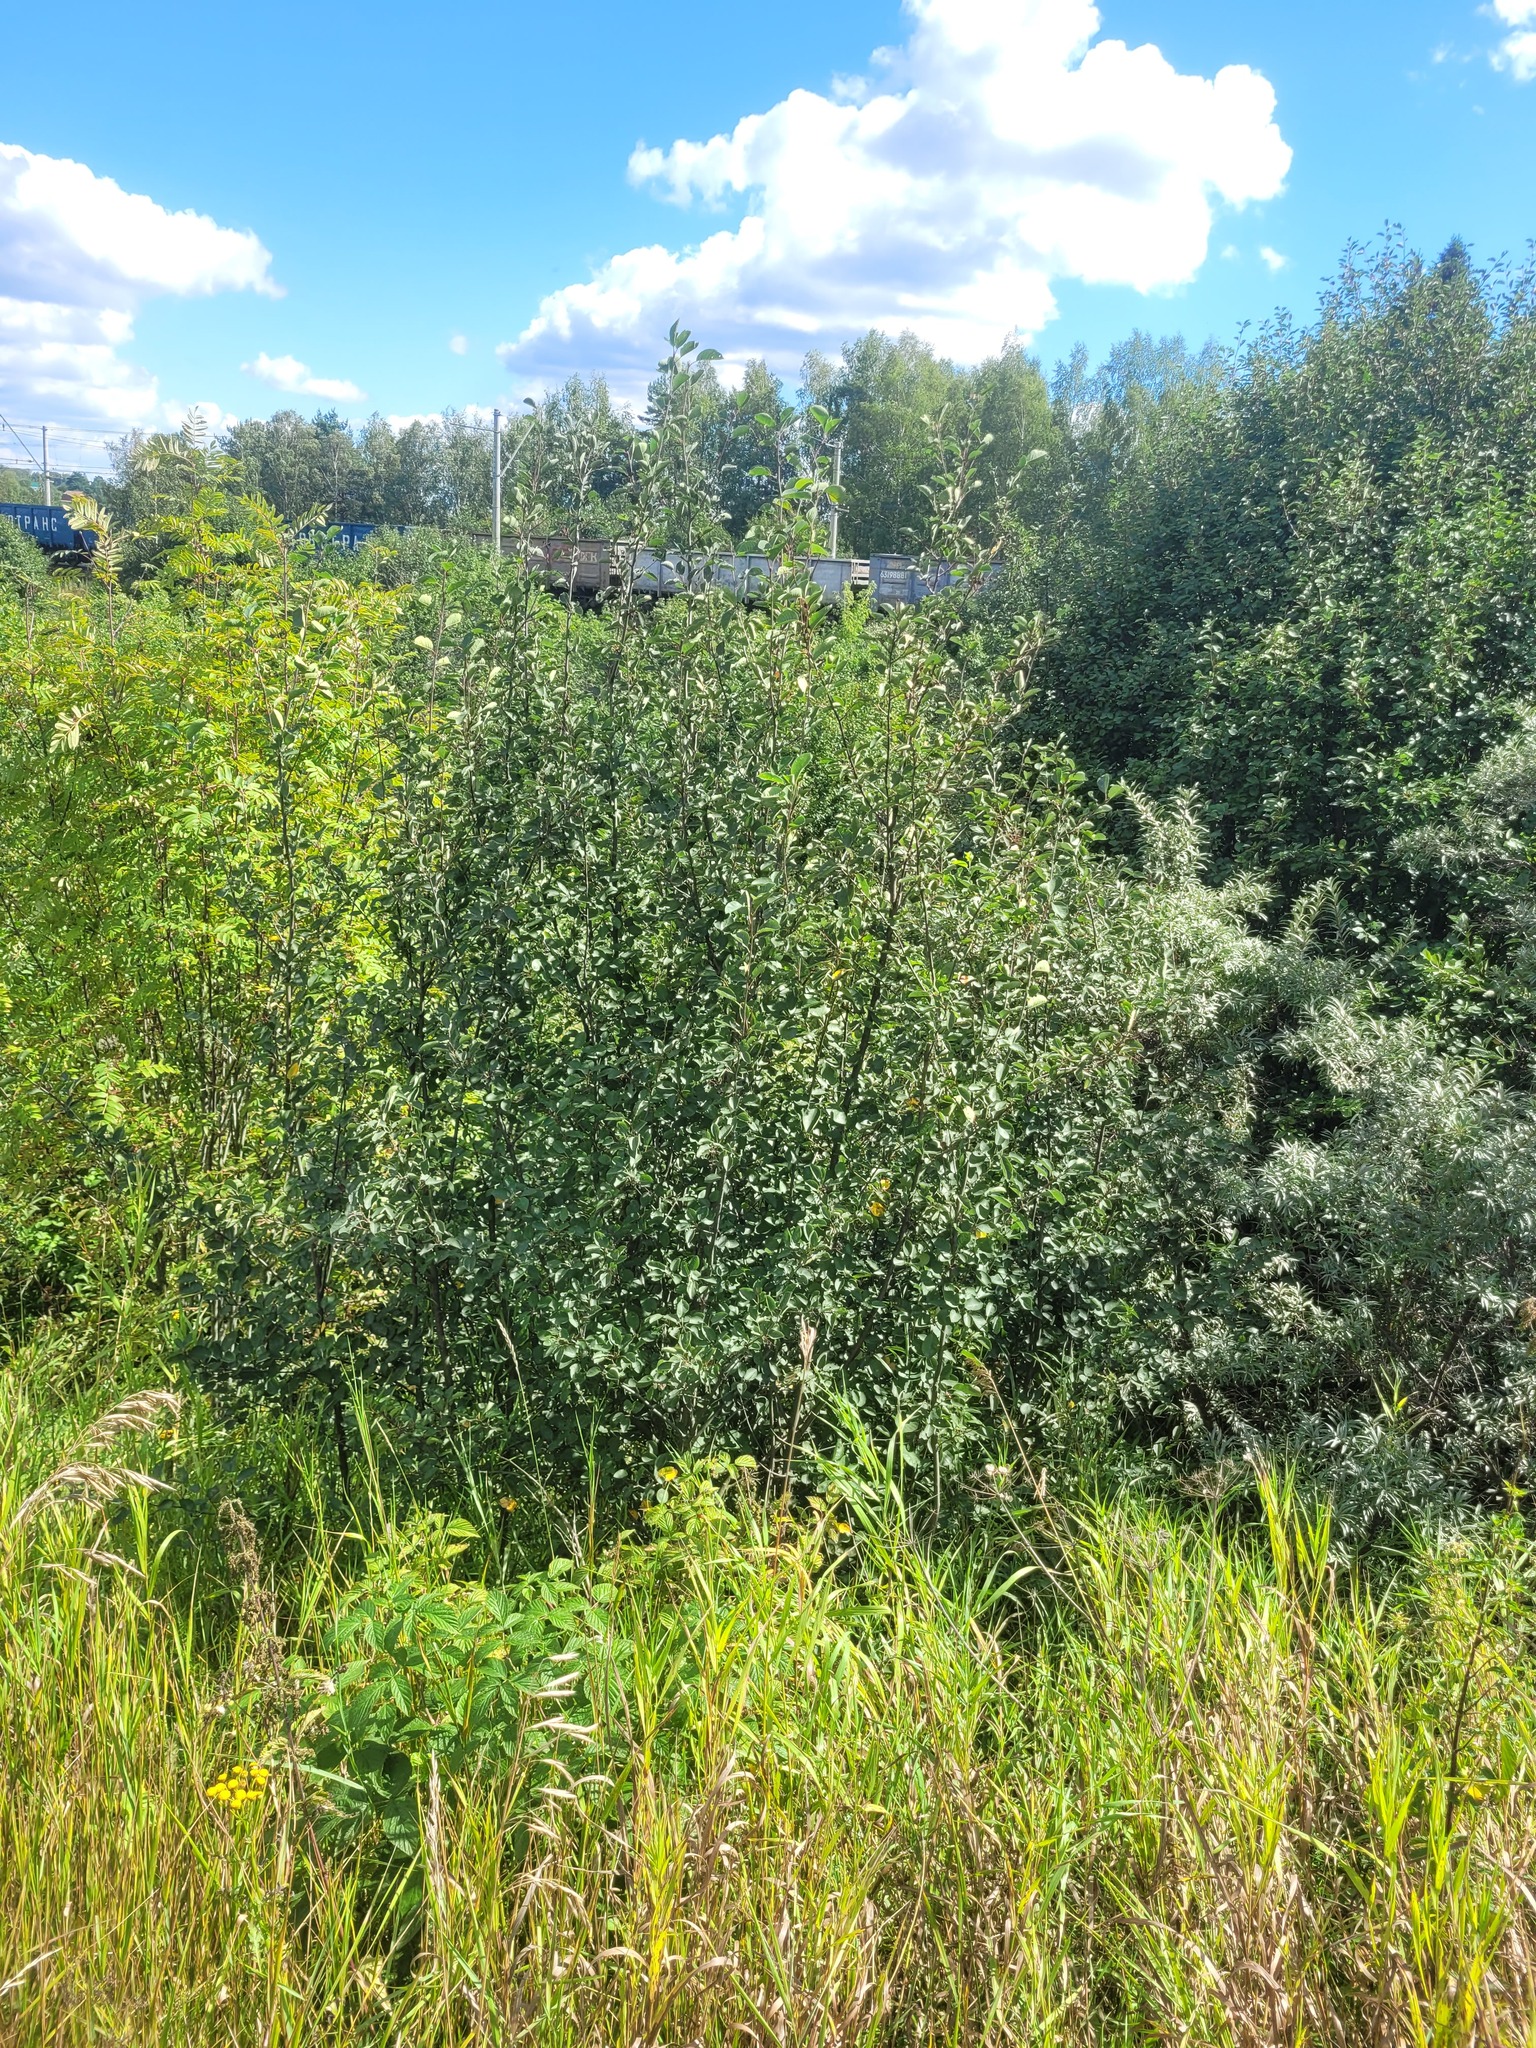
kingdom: Plantae
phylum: Tracheophyta
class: Magnoliopsida
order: Rosales
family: Rosaceae
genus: Amelanchier
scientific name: Amelanchier
